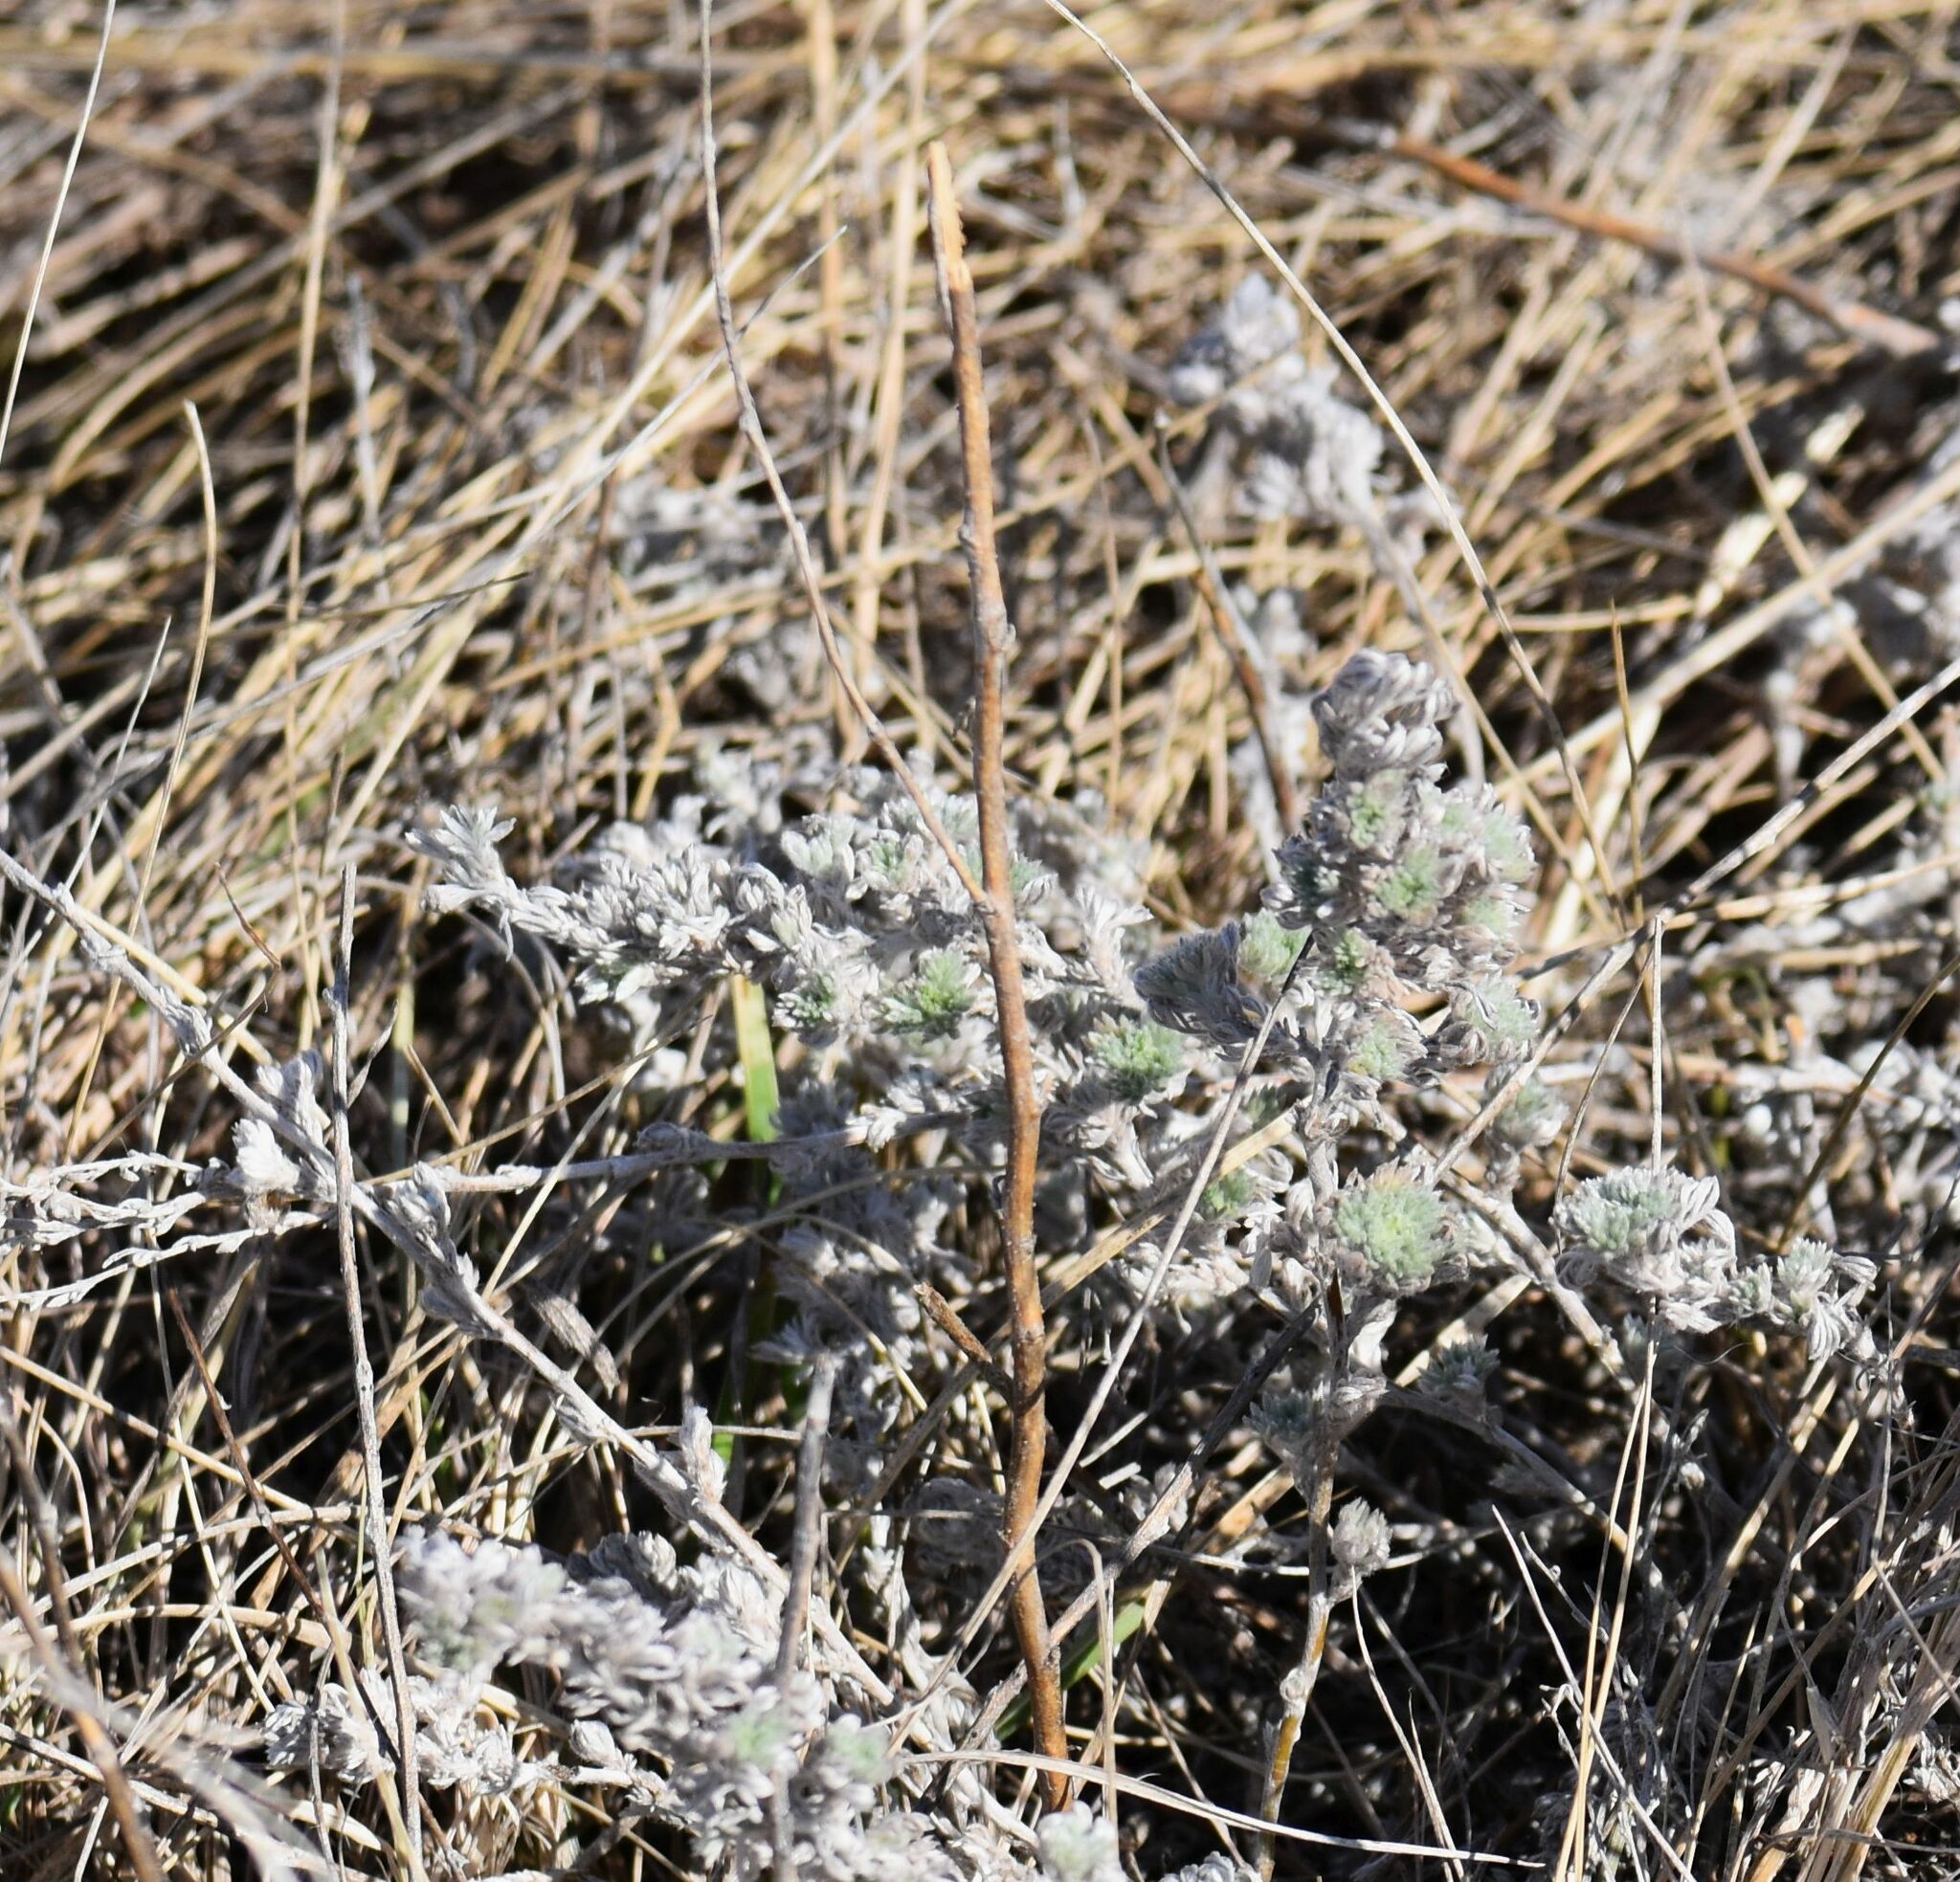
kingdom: Plantae
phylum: Tracheophyta
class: Magnoliopsida
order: Asterales
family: Asteraceae
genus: Artemisia
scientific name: Artemisia frigida
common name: Prairie sagewort
